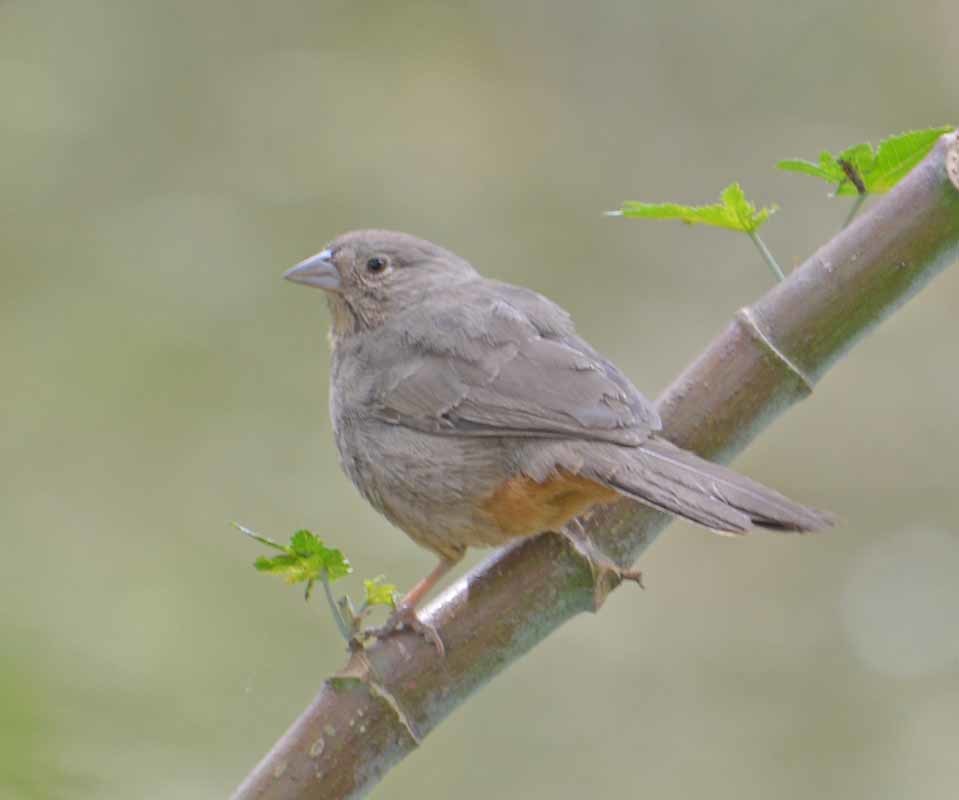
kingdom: Animalia
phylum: Chordata
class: Aves
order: Passeriformes
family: Passerellidae
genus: Melozone
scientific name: Melozone fusca
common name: Canyon towhee
